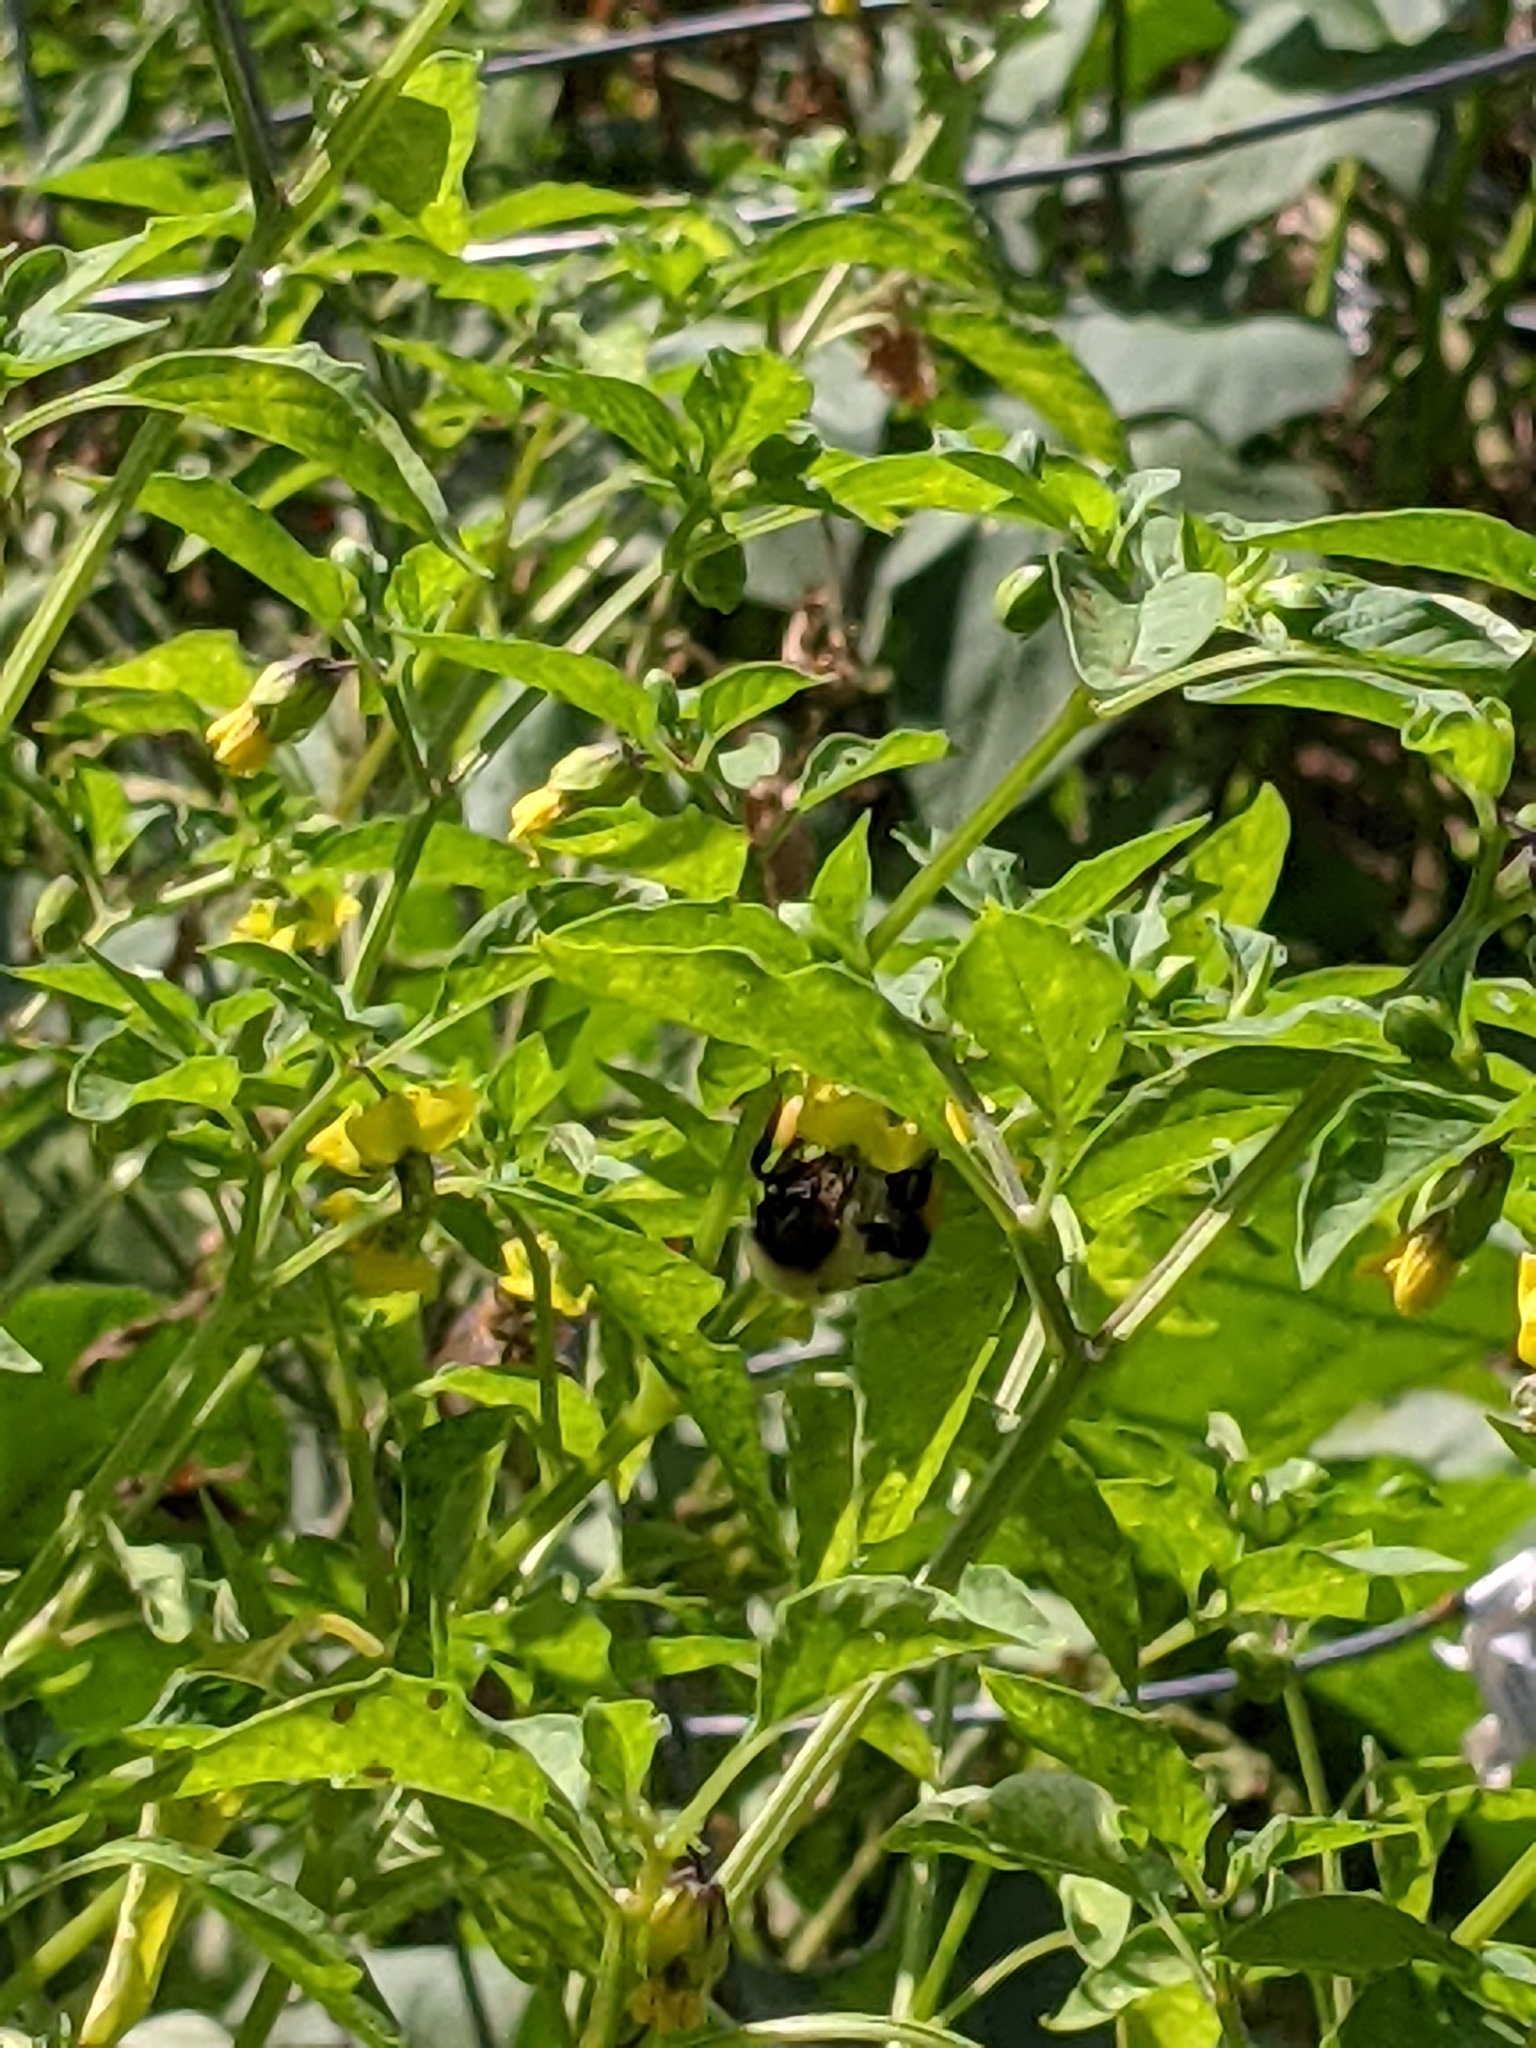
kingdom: Animalia
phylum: Arthropoda
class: Insecta
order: Hymenoptera
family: Apidae
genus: Bombus
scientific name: Bombus impatiens
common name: Common eastern bumble bee
